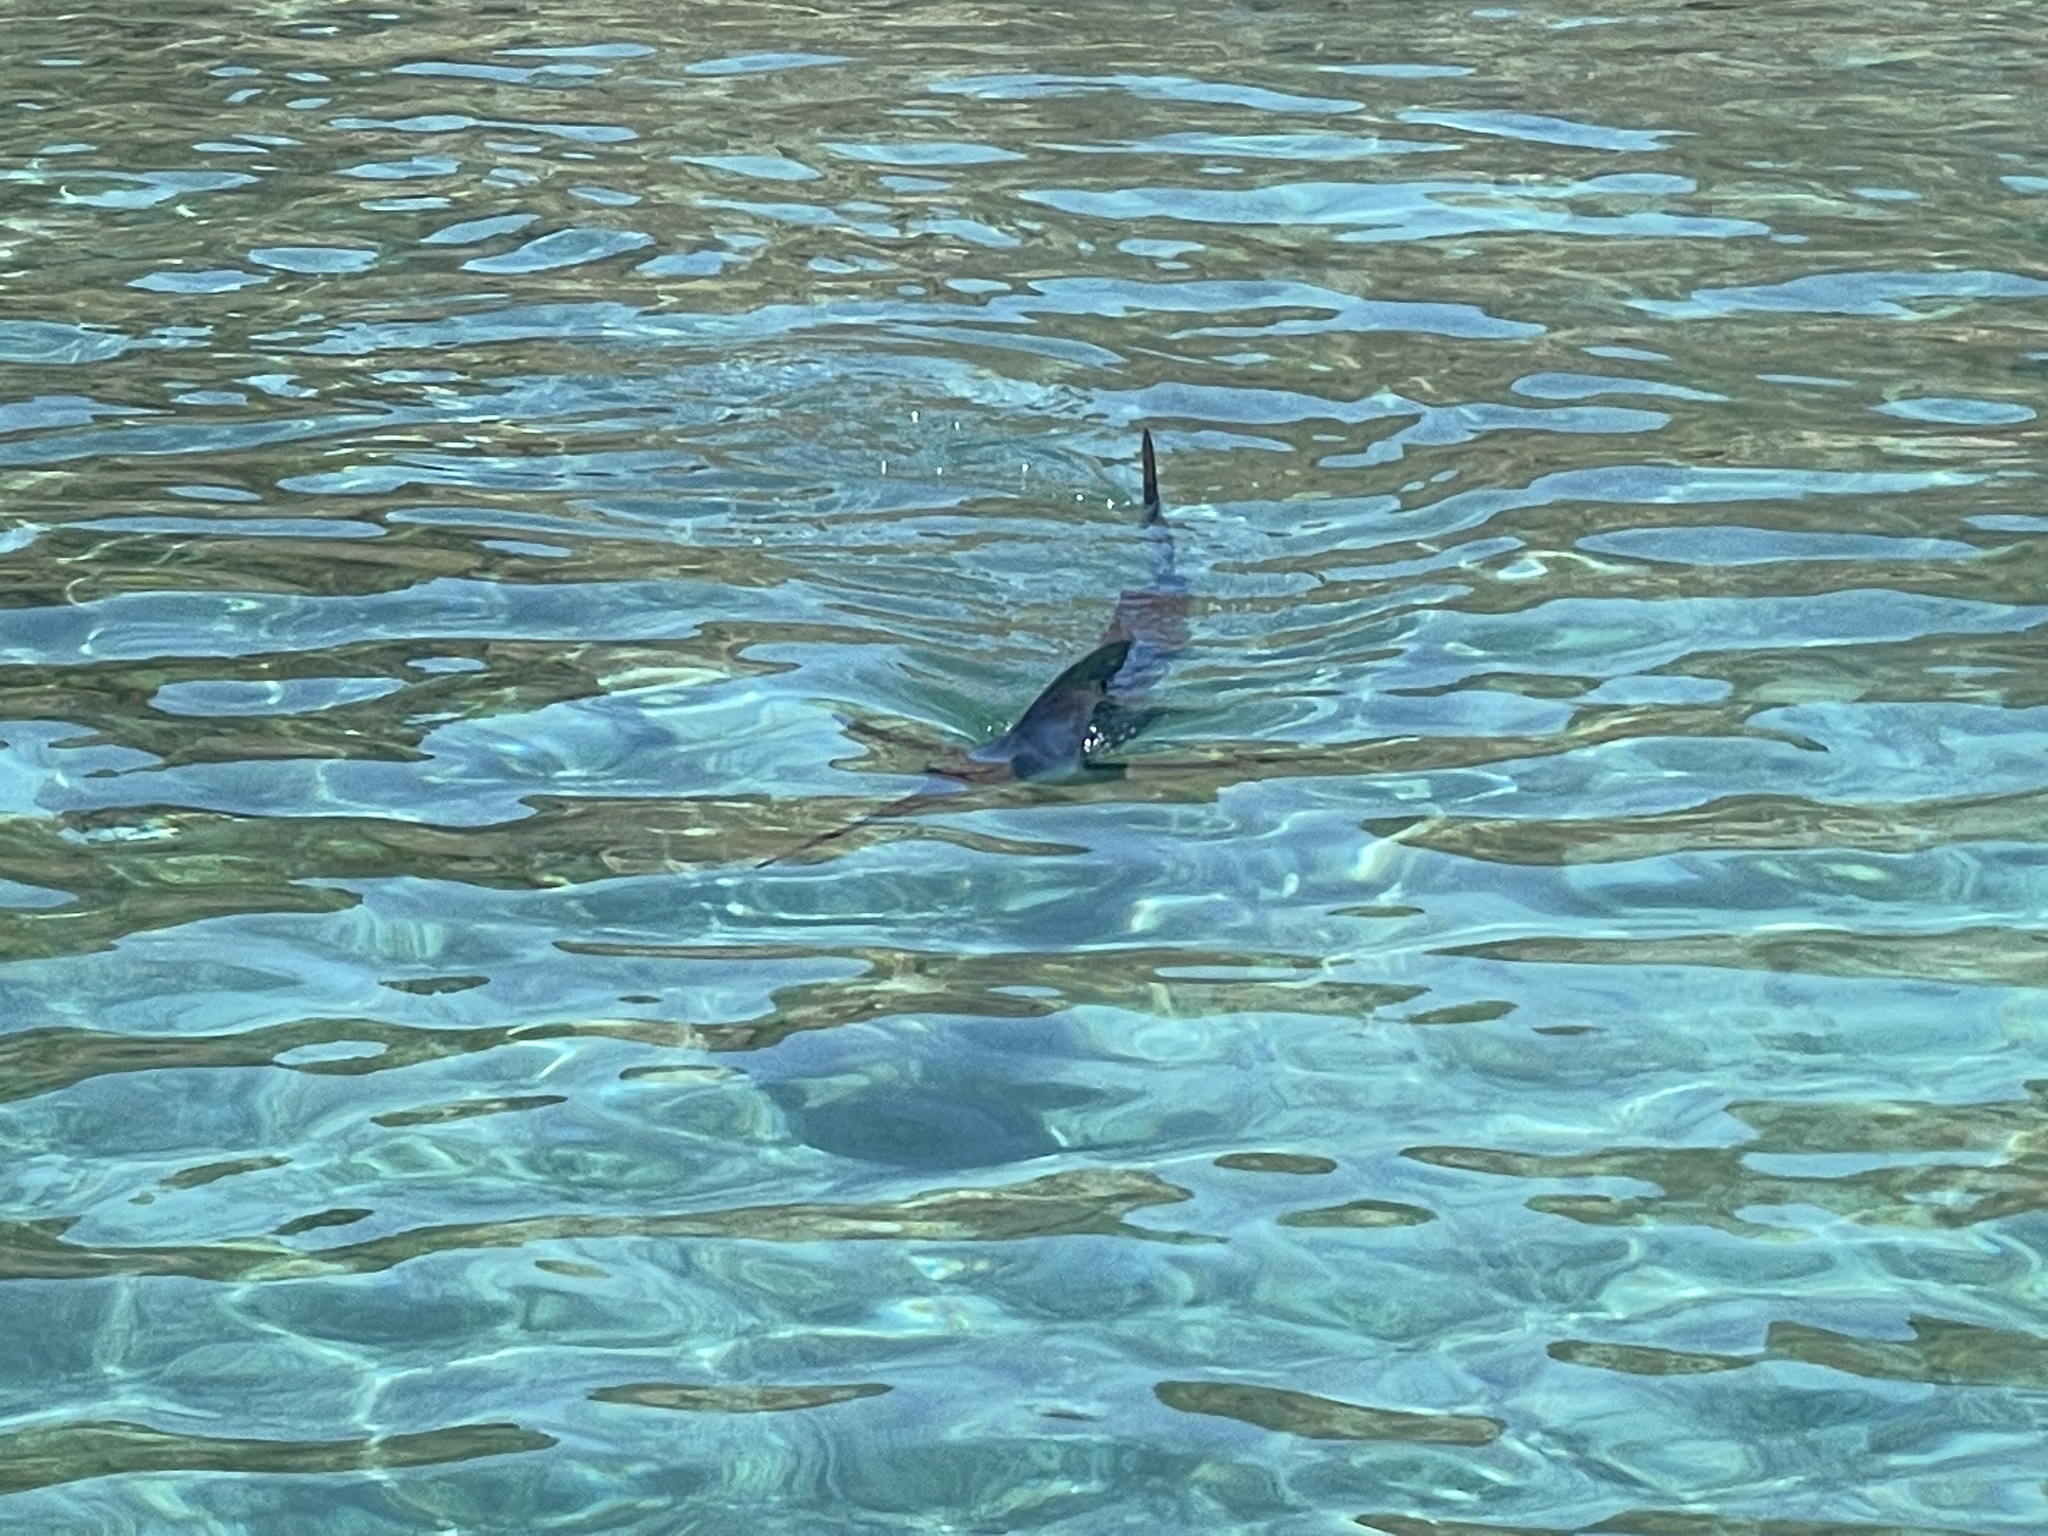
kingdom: Animalia
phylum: Chordata
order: Perciformes
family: Istiophoridae
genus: Kajikia
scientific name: Kajikia audax
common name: Striped marlin
